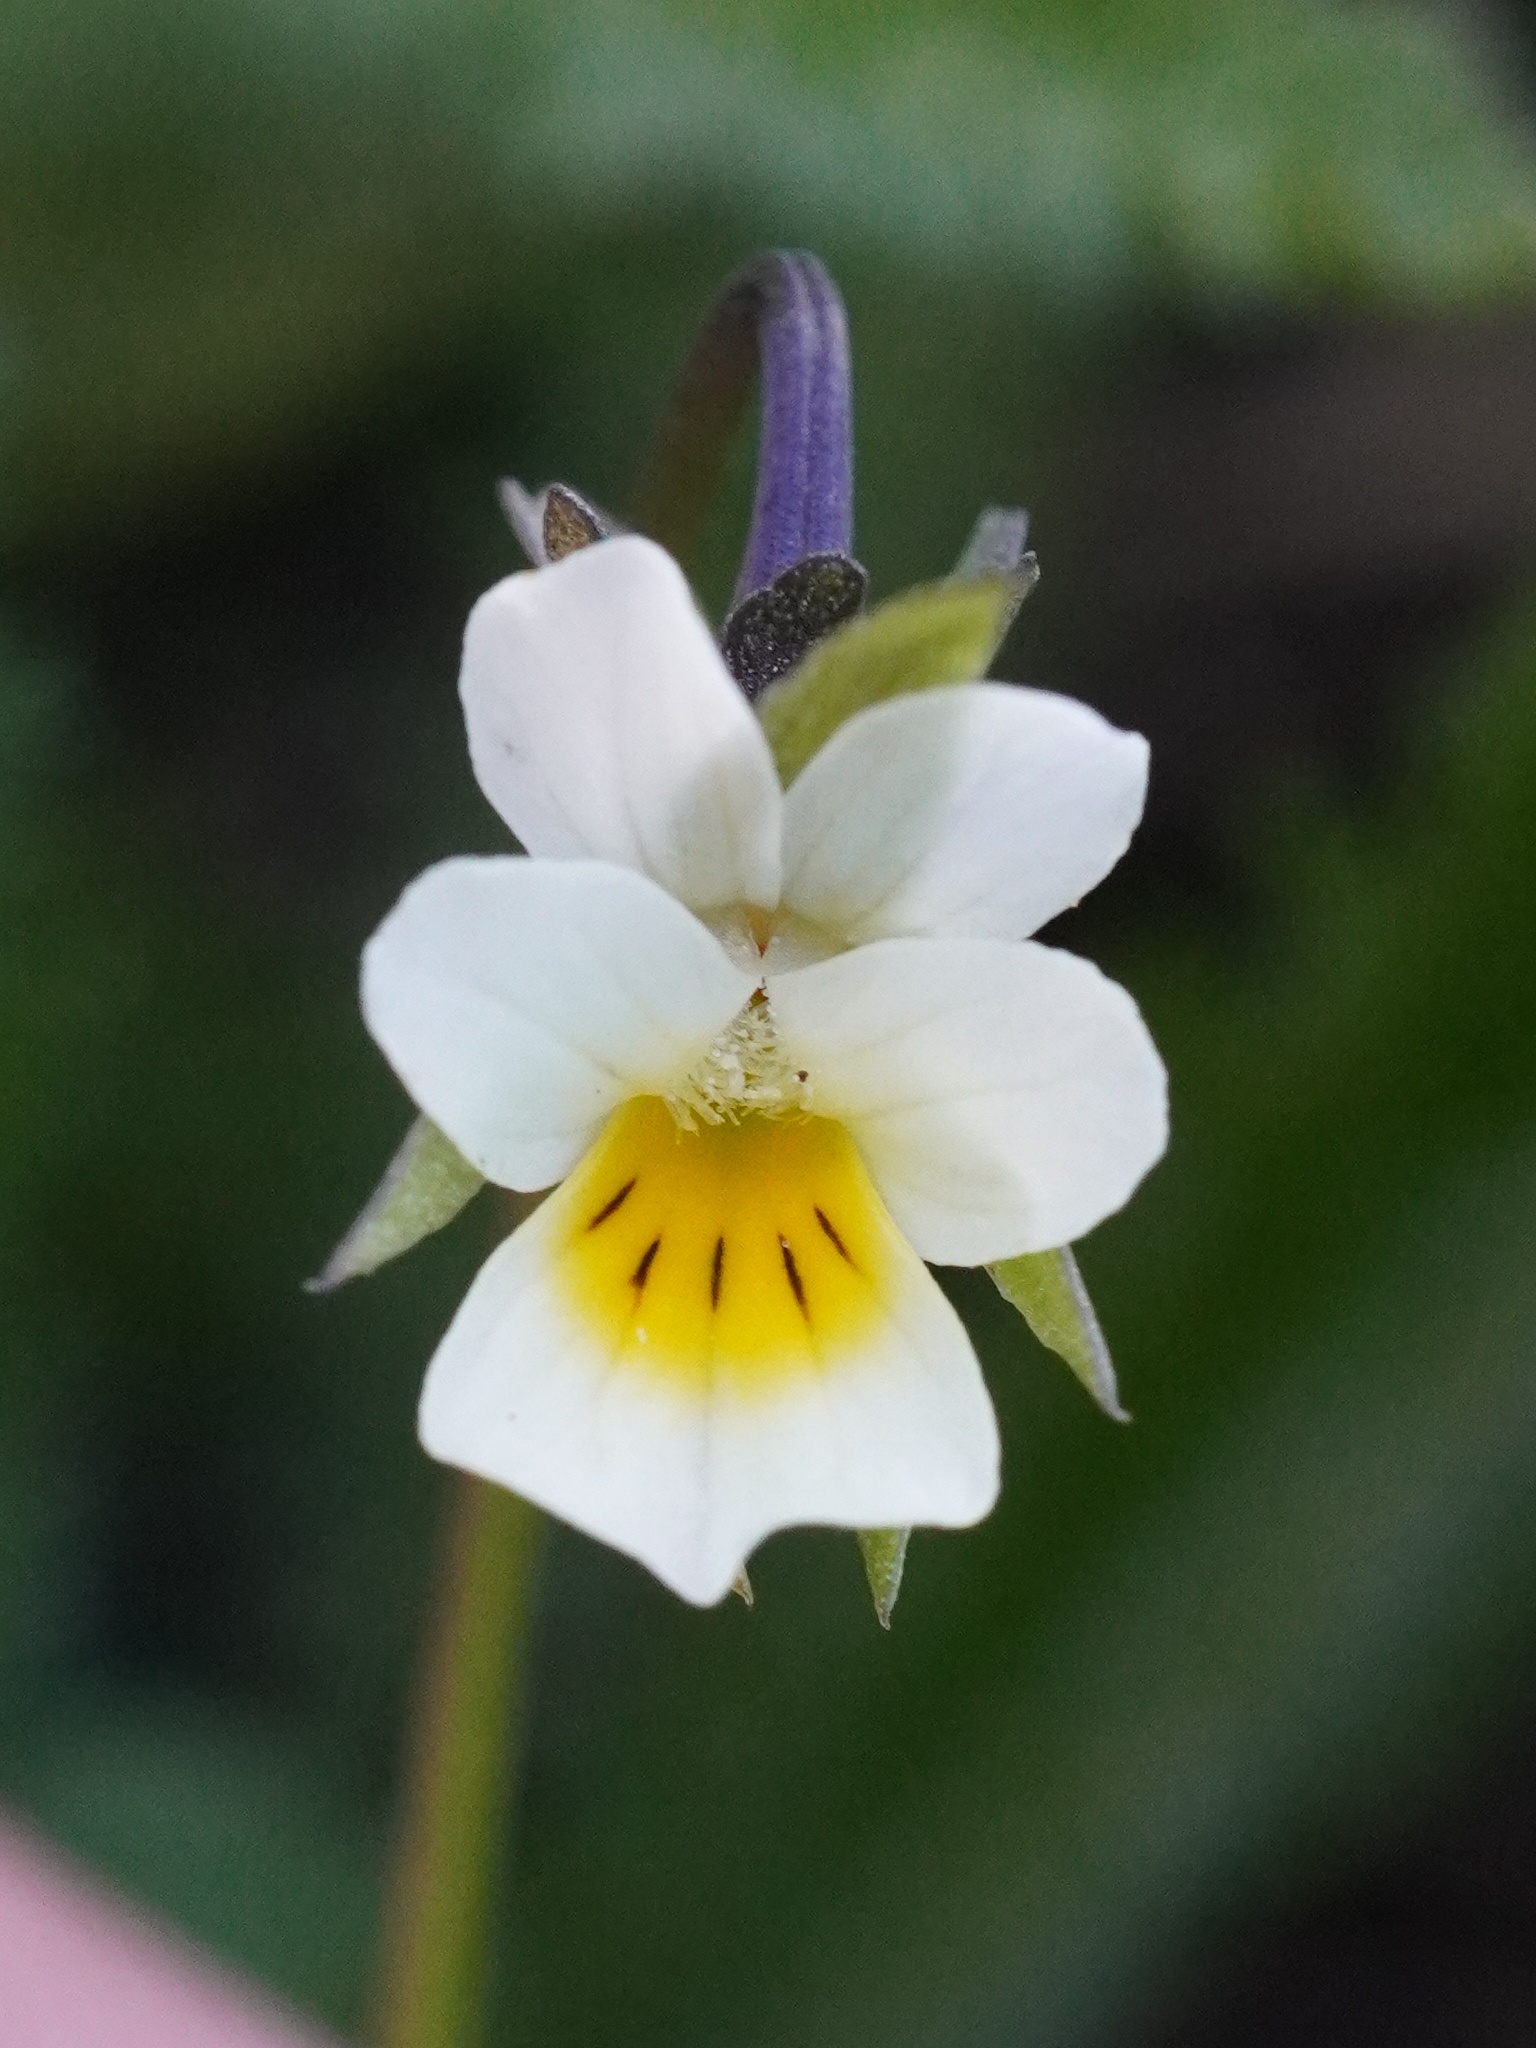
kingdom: Plantae
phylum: Tracheophyta
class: Magnoliopsida
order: Malpighiales
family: Violaceae
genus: Viola
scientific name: Viola arvensis
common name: Field pansy
